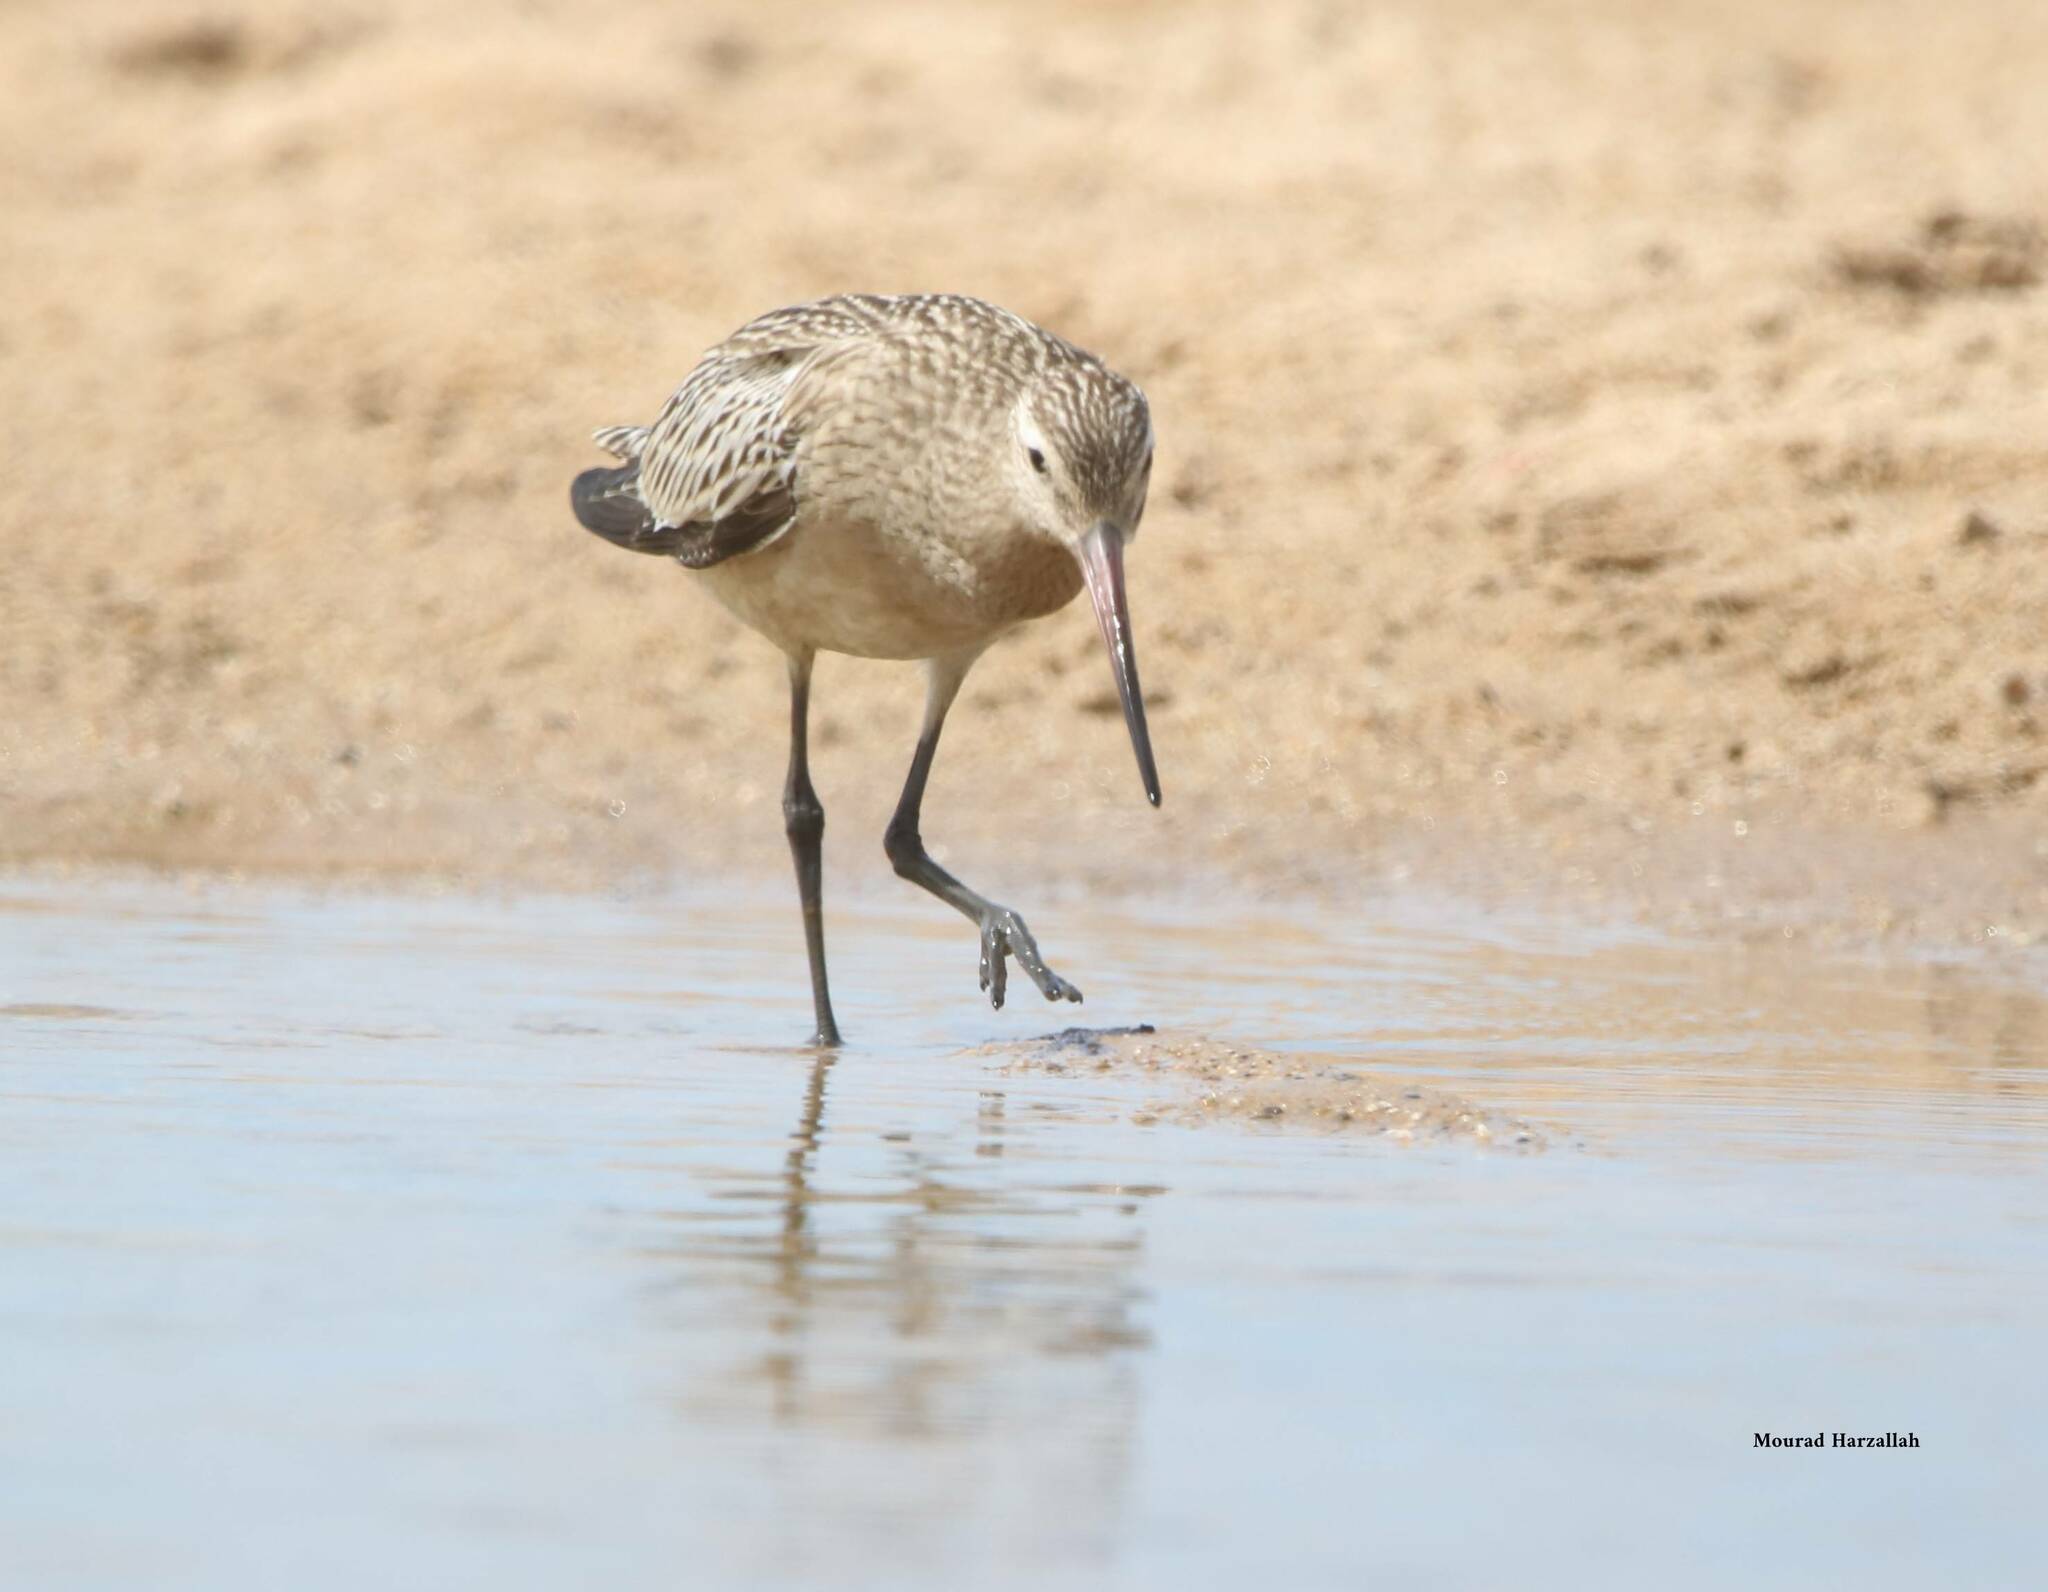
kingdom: Animalia
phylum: Chordata
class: Aves
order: Charadriiformes
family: Scolopacidae
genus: Limosa
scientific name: Limosa lapponica
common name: Bar-tailed godwit
